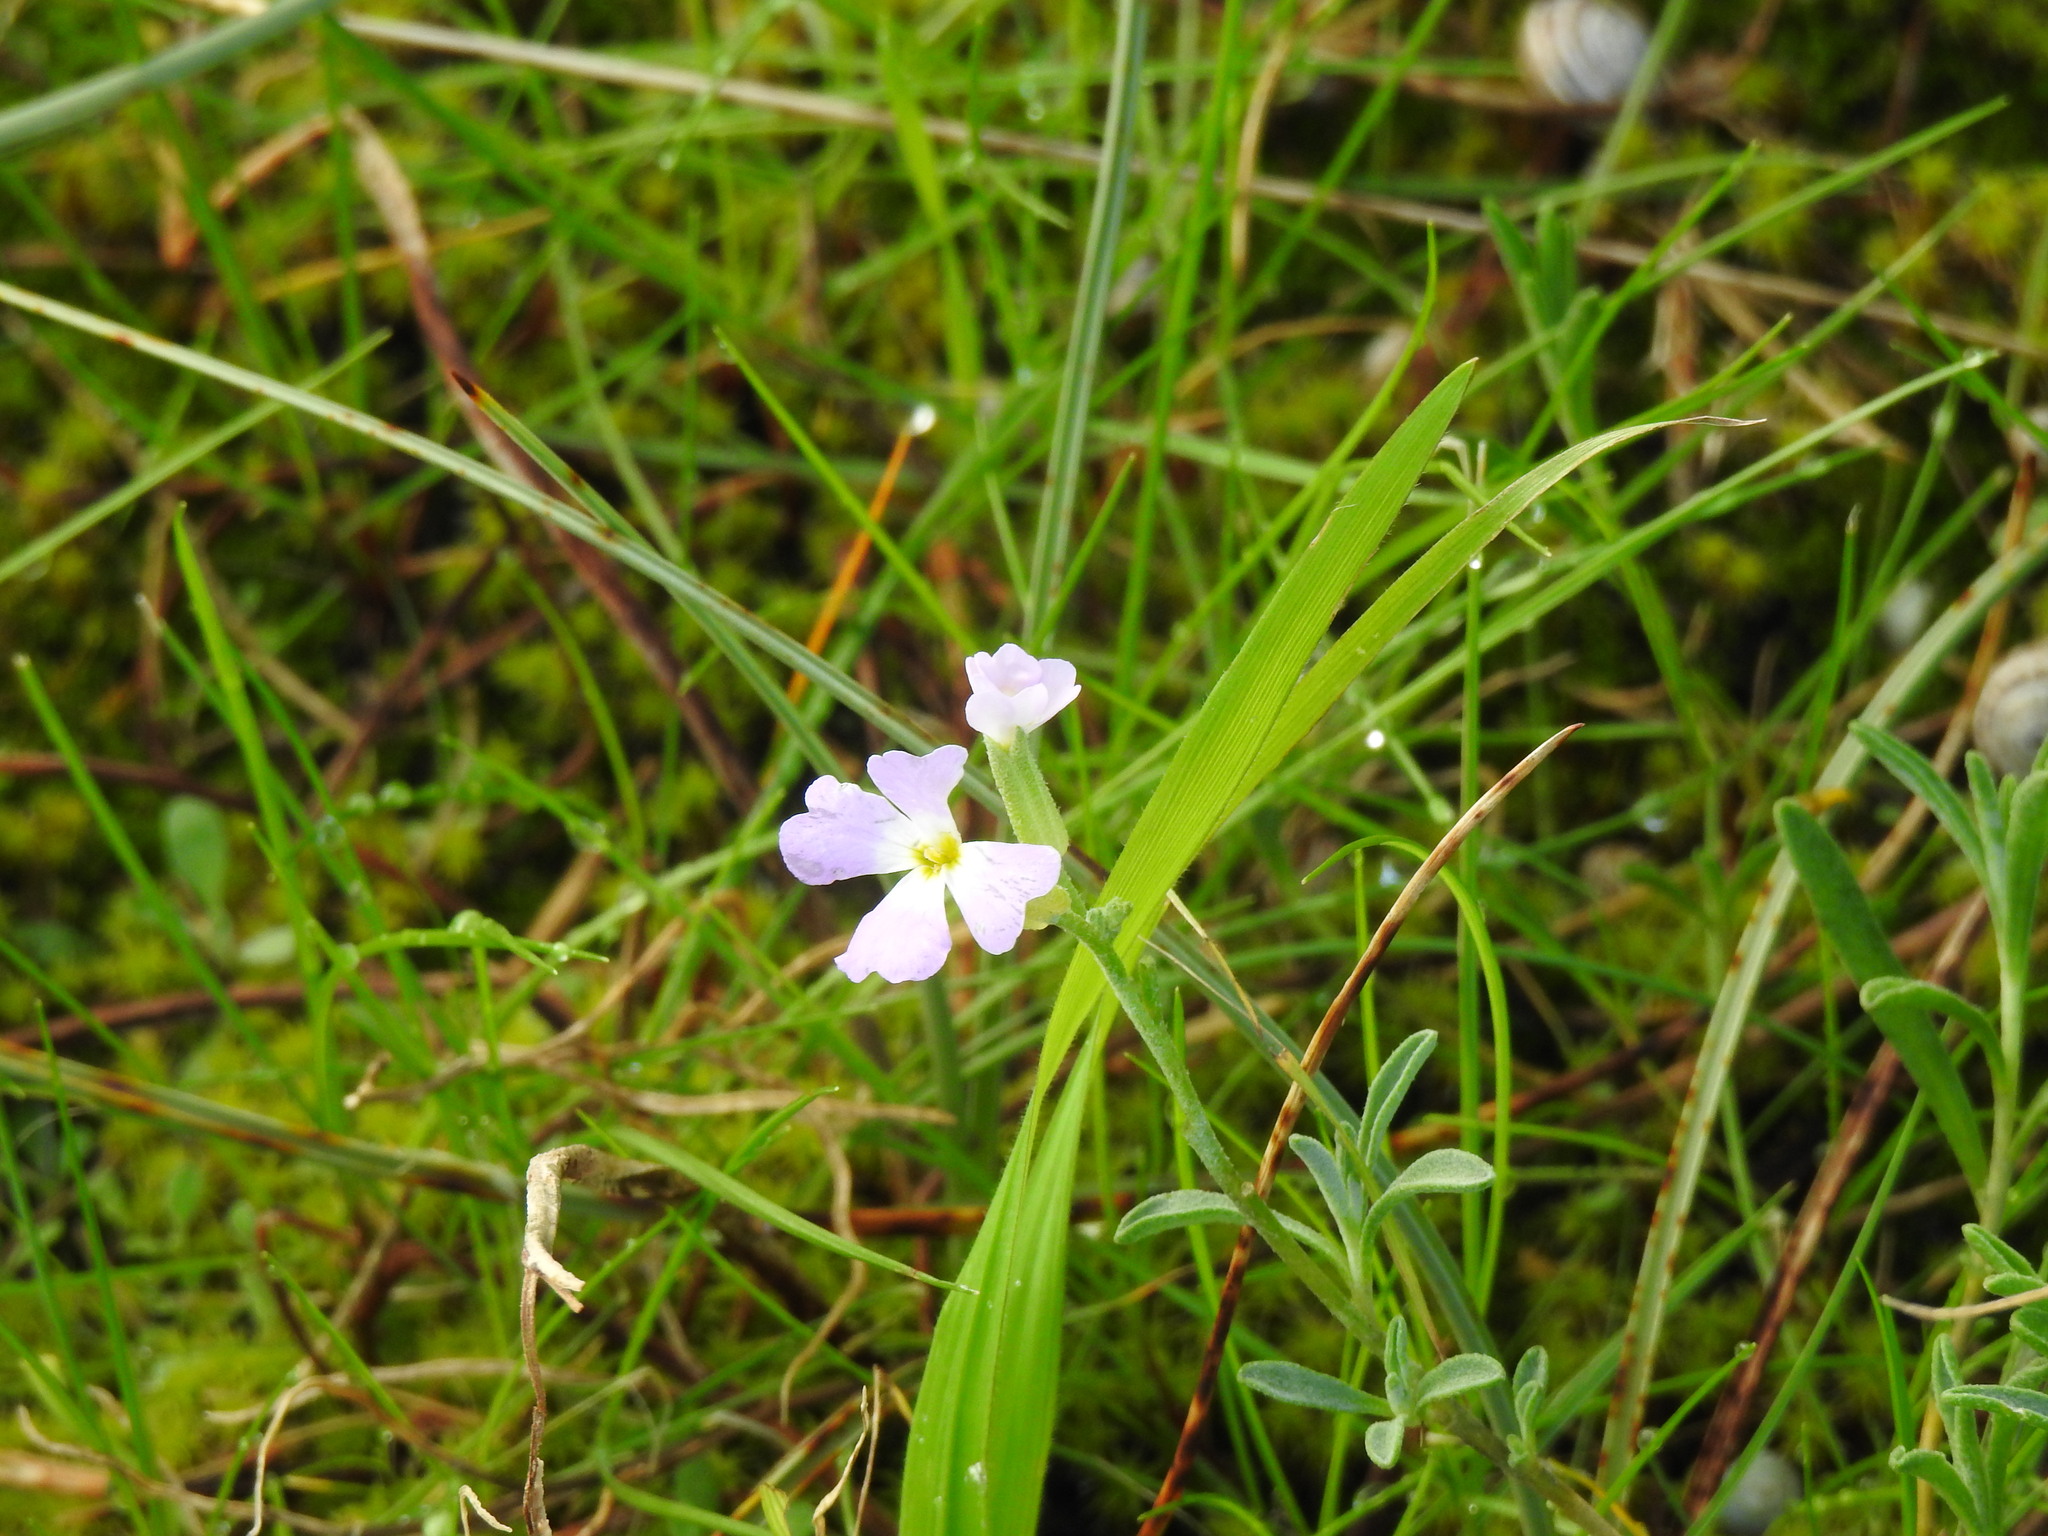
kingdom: Plantae
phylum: Tracheophyta
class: Magnoliopsida
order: Brassicales
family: Brassicaceae
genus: Marcuskochia
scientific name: Marcuskochia littorea
